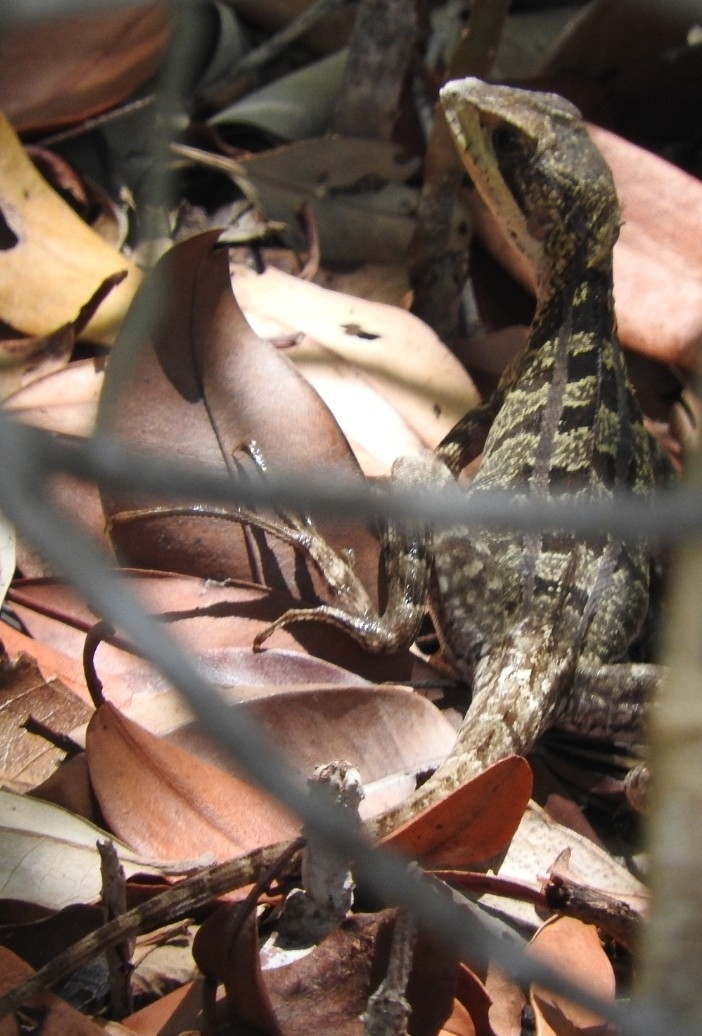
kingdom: Animalia
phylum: Chordata
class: Squamata
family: Corytophanidae
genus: Basiliscus
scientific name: Basiliscus vittatus
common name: Brown basilisk
